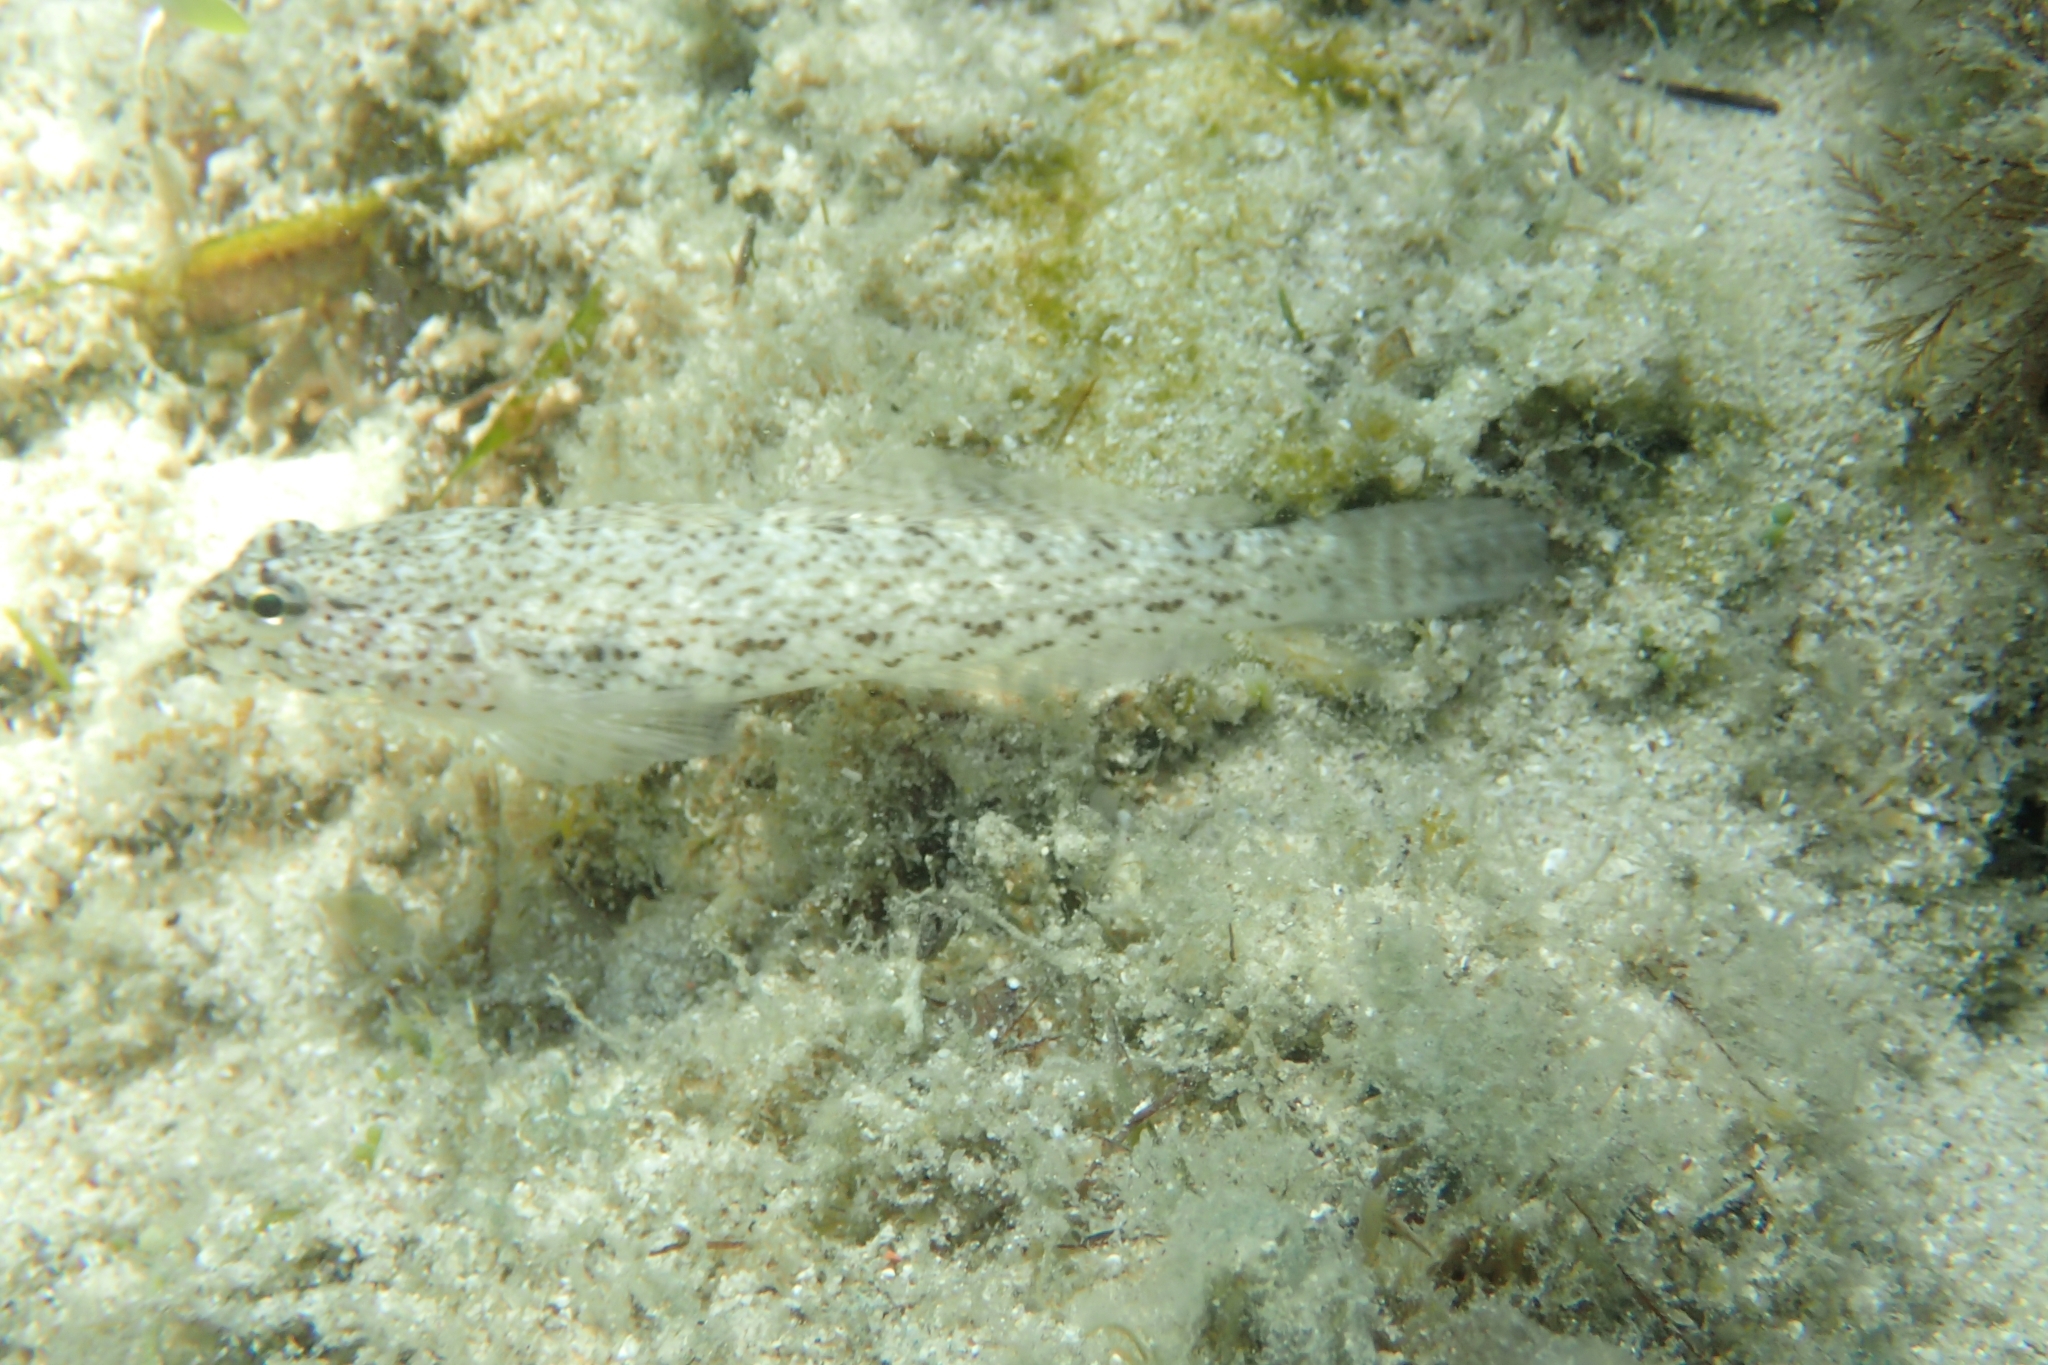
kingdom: Animalia
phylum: Chordata
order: Perciformes
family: Gobiidae
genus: Gobius
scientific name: Gobius incognitus
